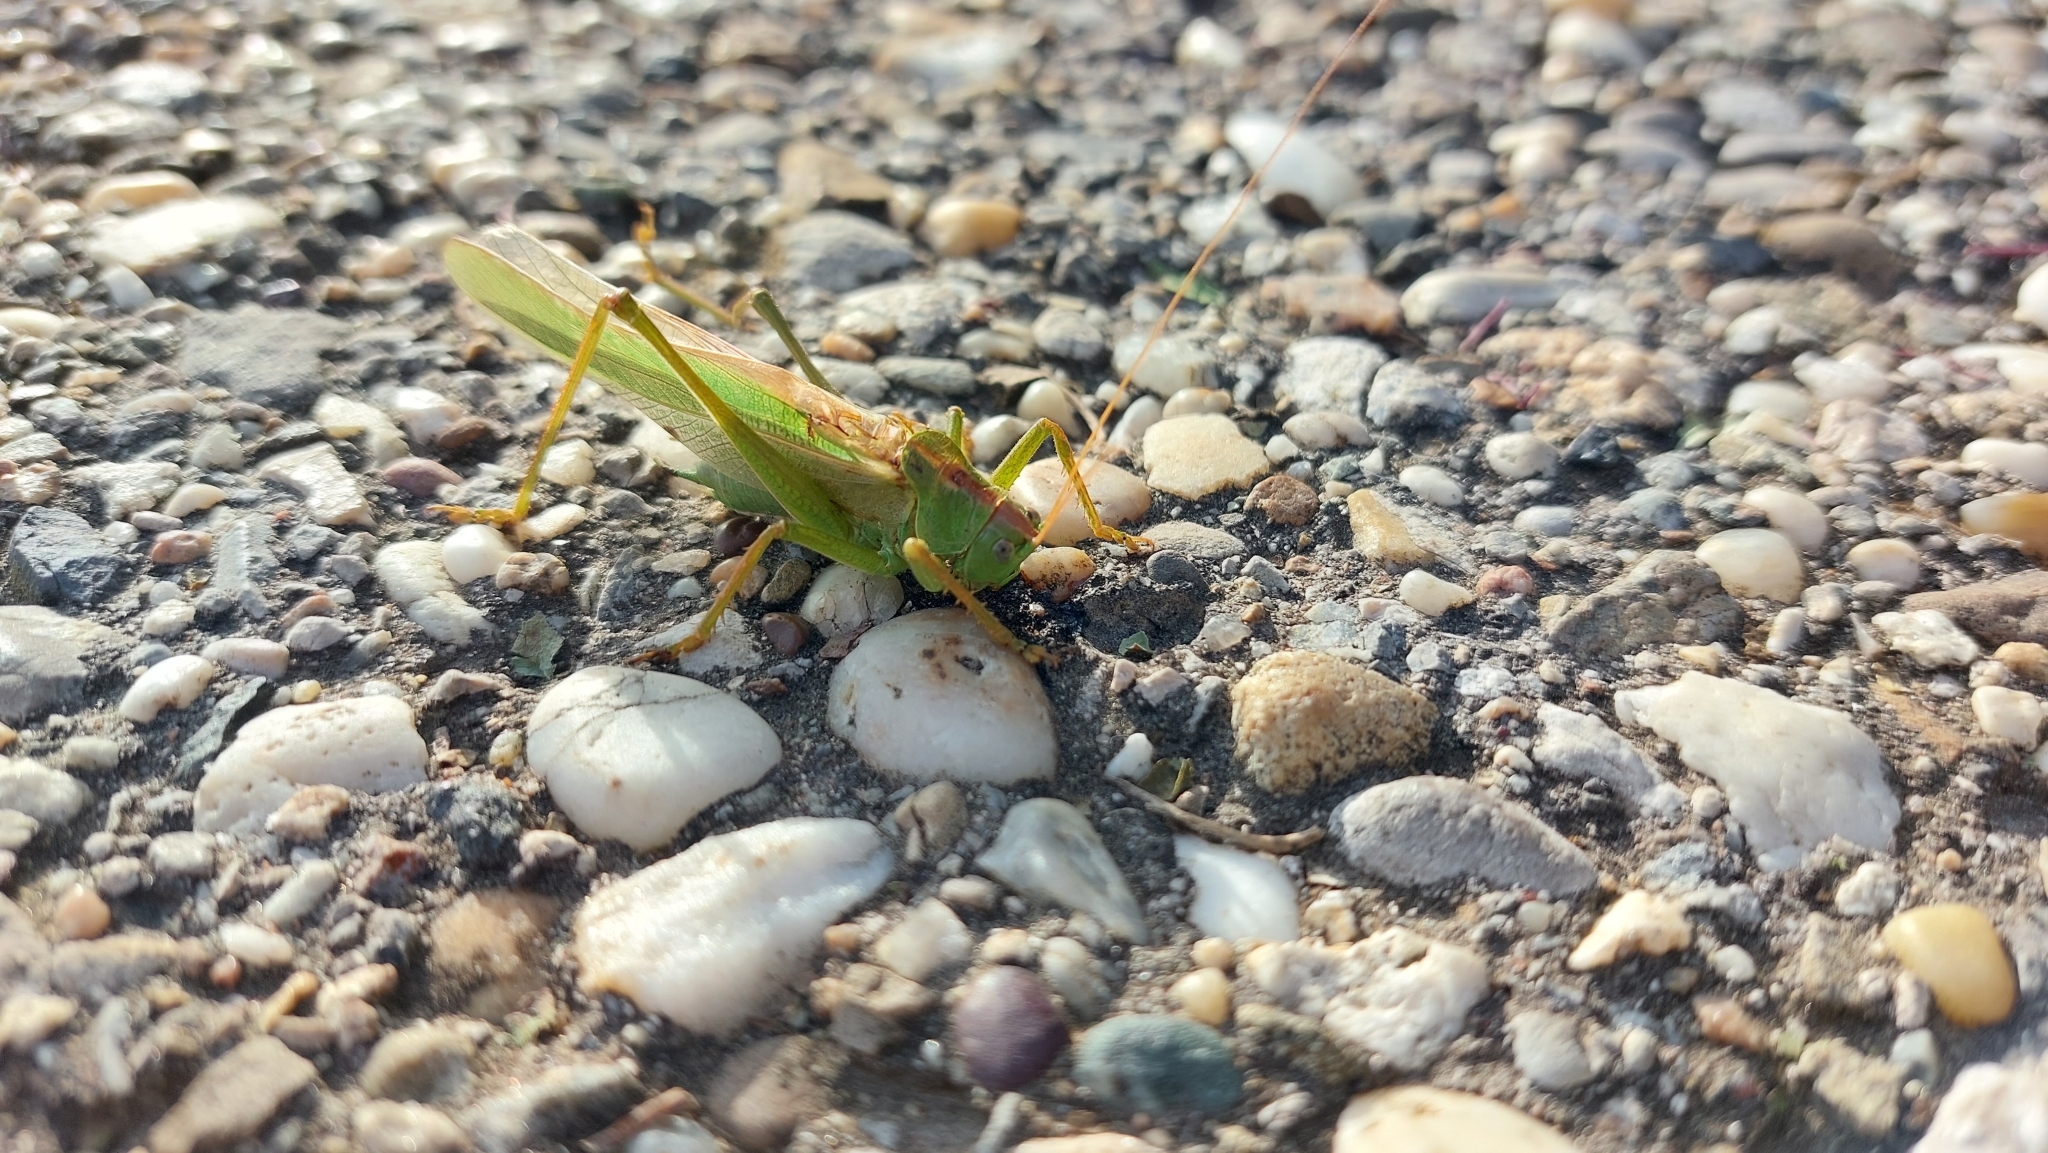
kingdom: Animalia
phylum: Arthropoda
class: Insecta
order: Orthoptera
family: Tettigoniidae
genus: Tettigonia
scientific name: Tettigonia viridissima
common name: Great green bush-cricket
